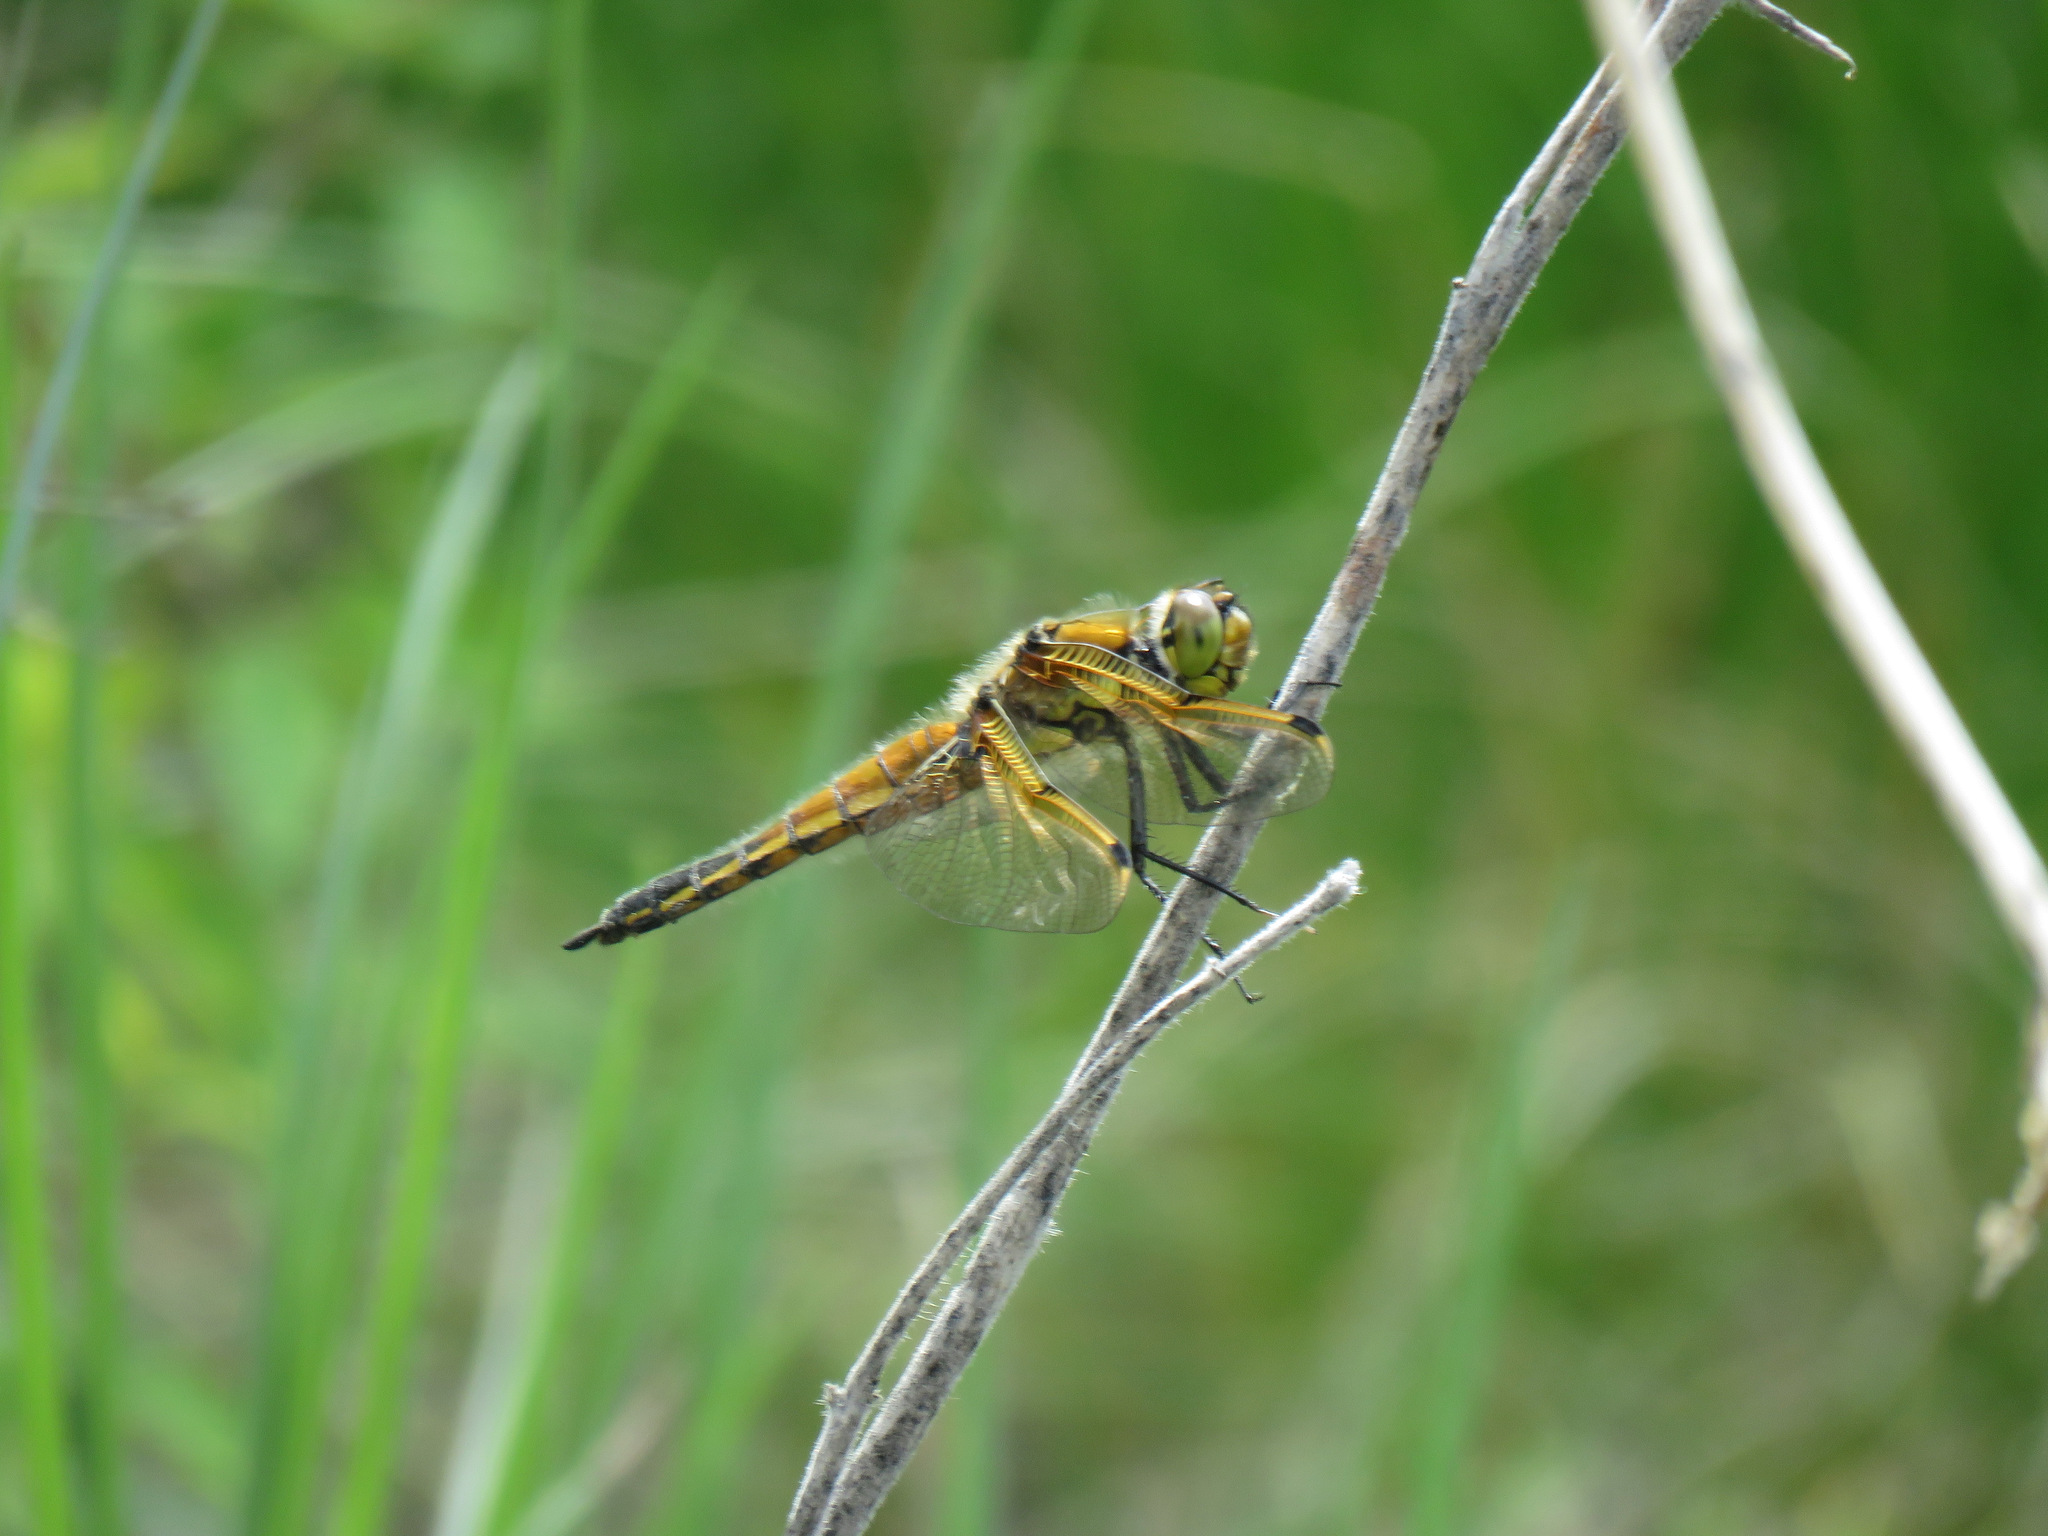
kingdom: Animalia
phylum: Arthropoda
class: Insecta
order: Odonata
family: Libellulidae
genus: Libellula
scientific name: Libellula quadrimaculata
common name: Four-spotted chaser
